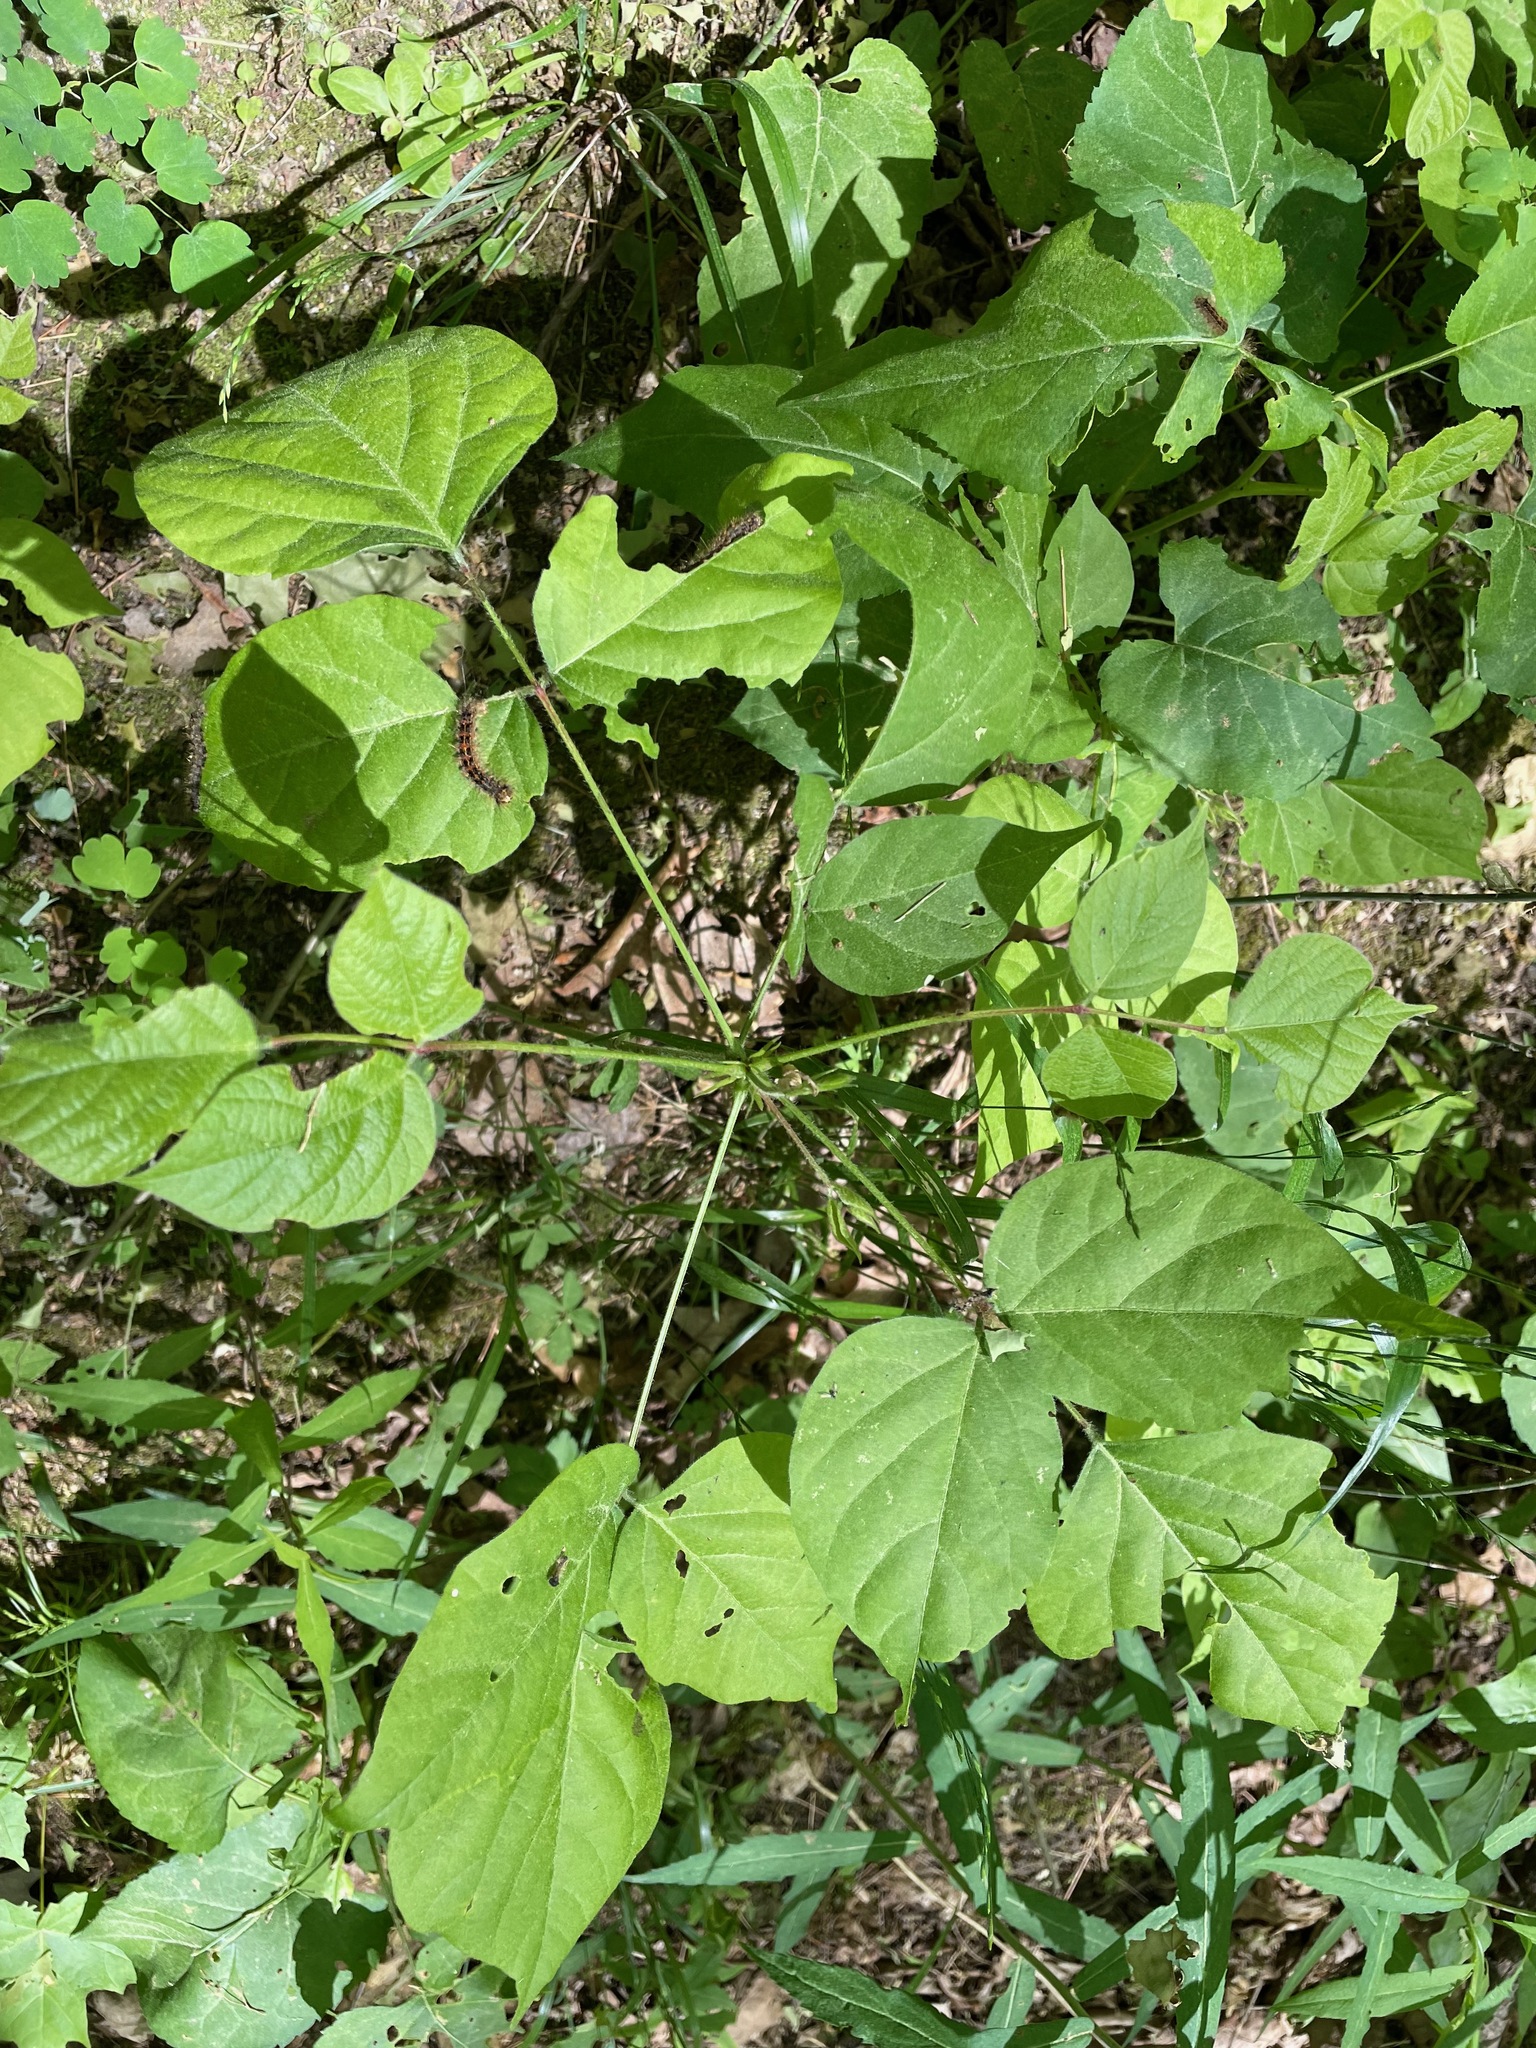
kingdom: Plantae
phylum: Tracheophyta
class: Magnoliopsida
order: Fabales
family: Fabaceae
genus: Hylodesmum
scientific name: Hylodesmum glutinosum
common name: Clustered-leaved tick-trefoil
